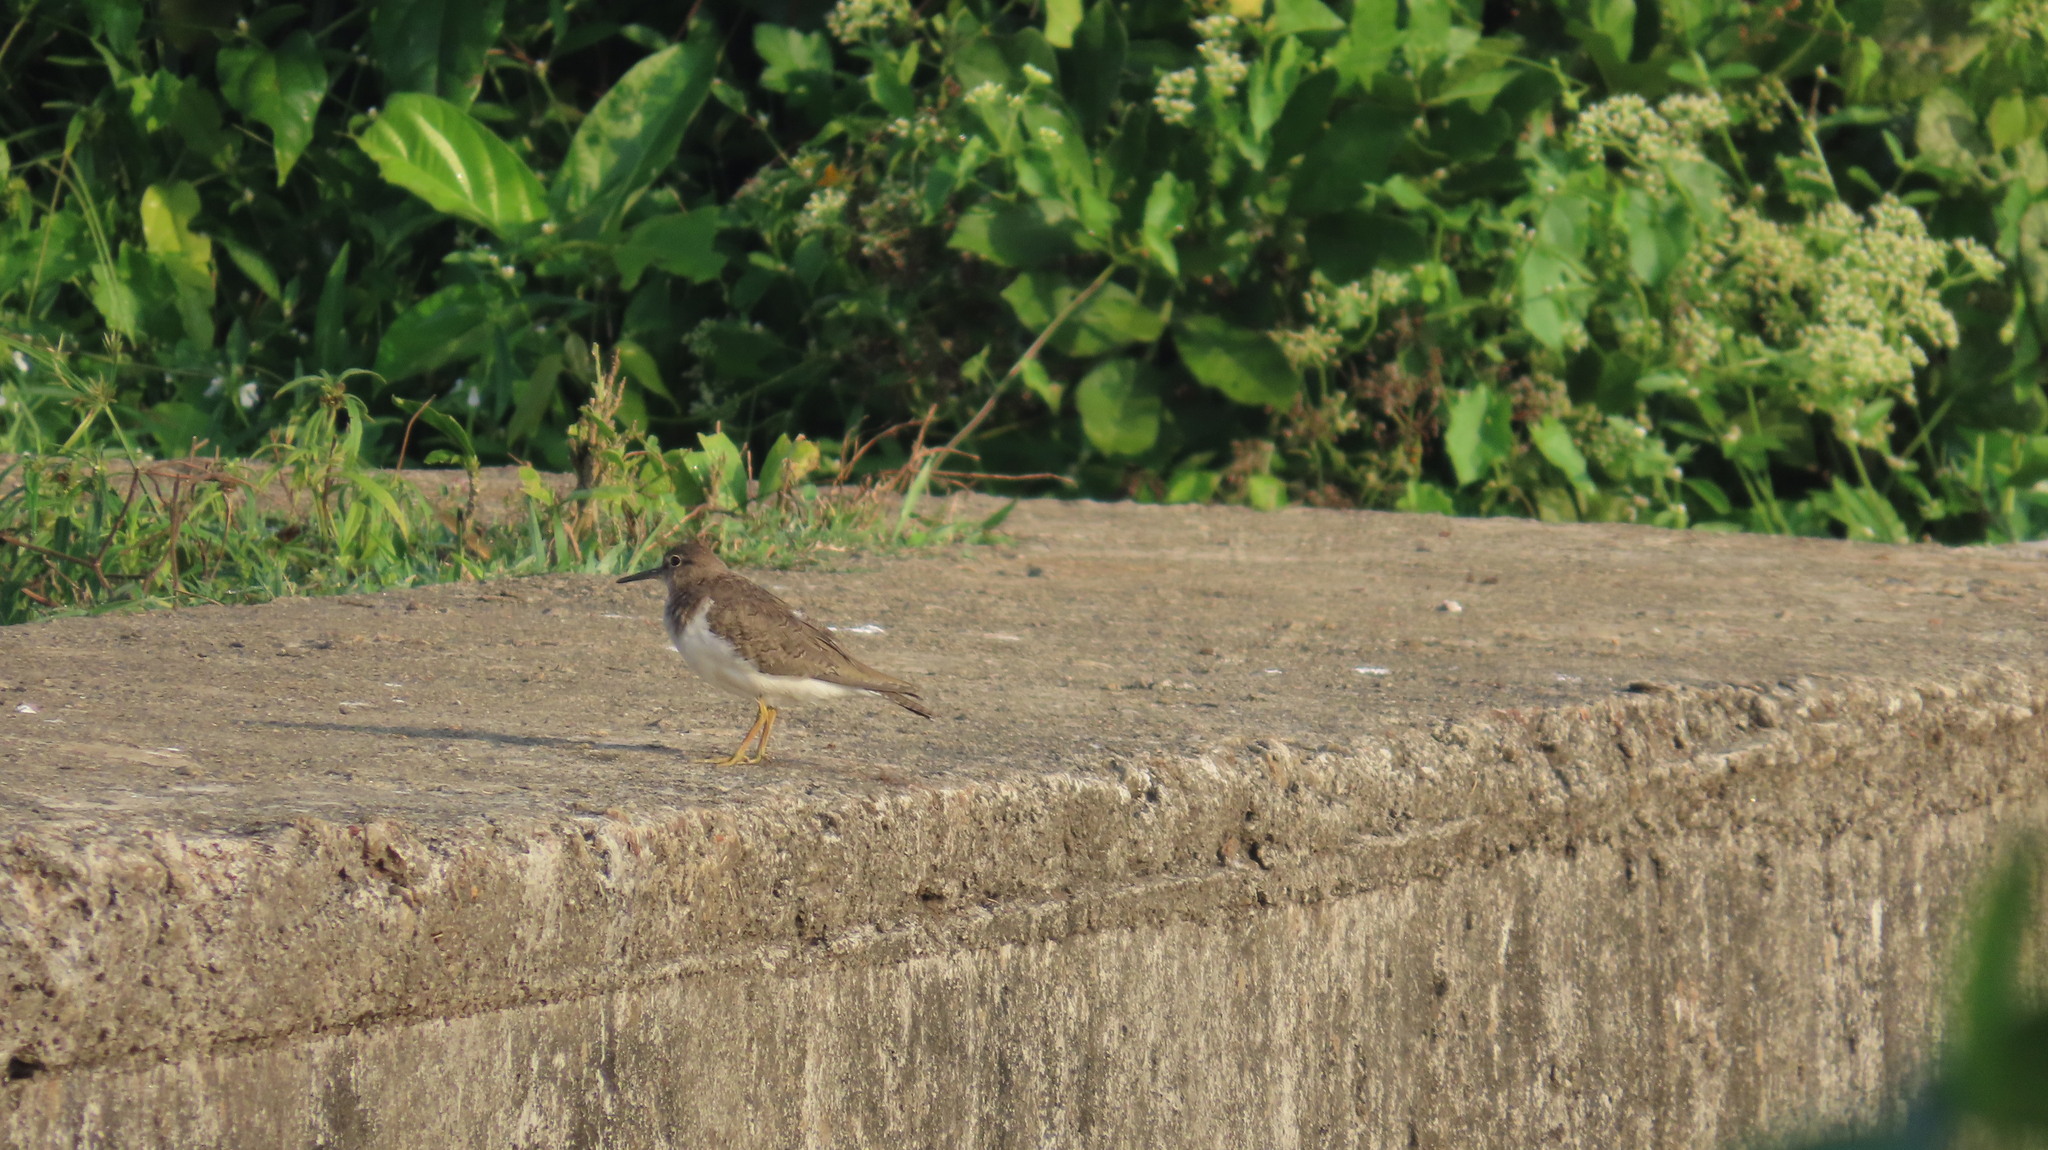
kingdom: Animalia
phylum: Chordata
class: Aves
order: Charadriiformes
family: Scolopacidae
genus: Actitis
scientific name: Actitis hypoleucos
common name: Common sandpiper
